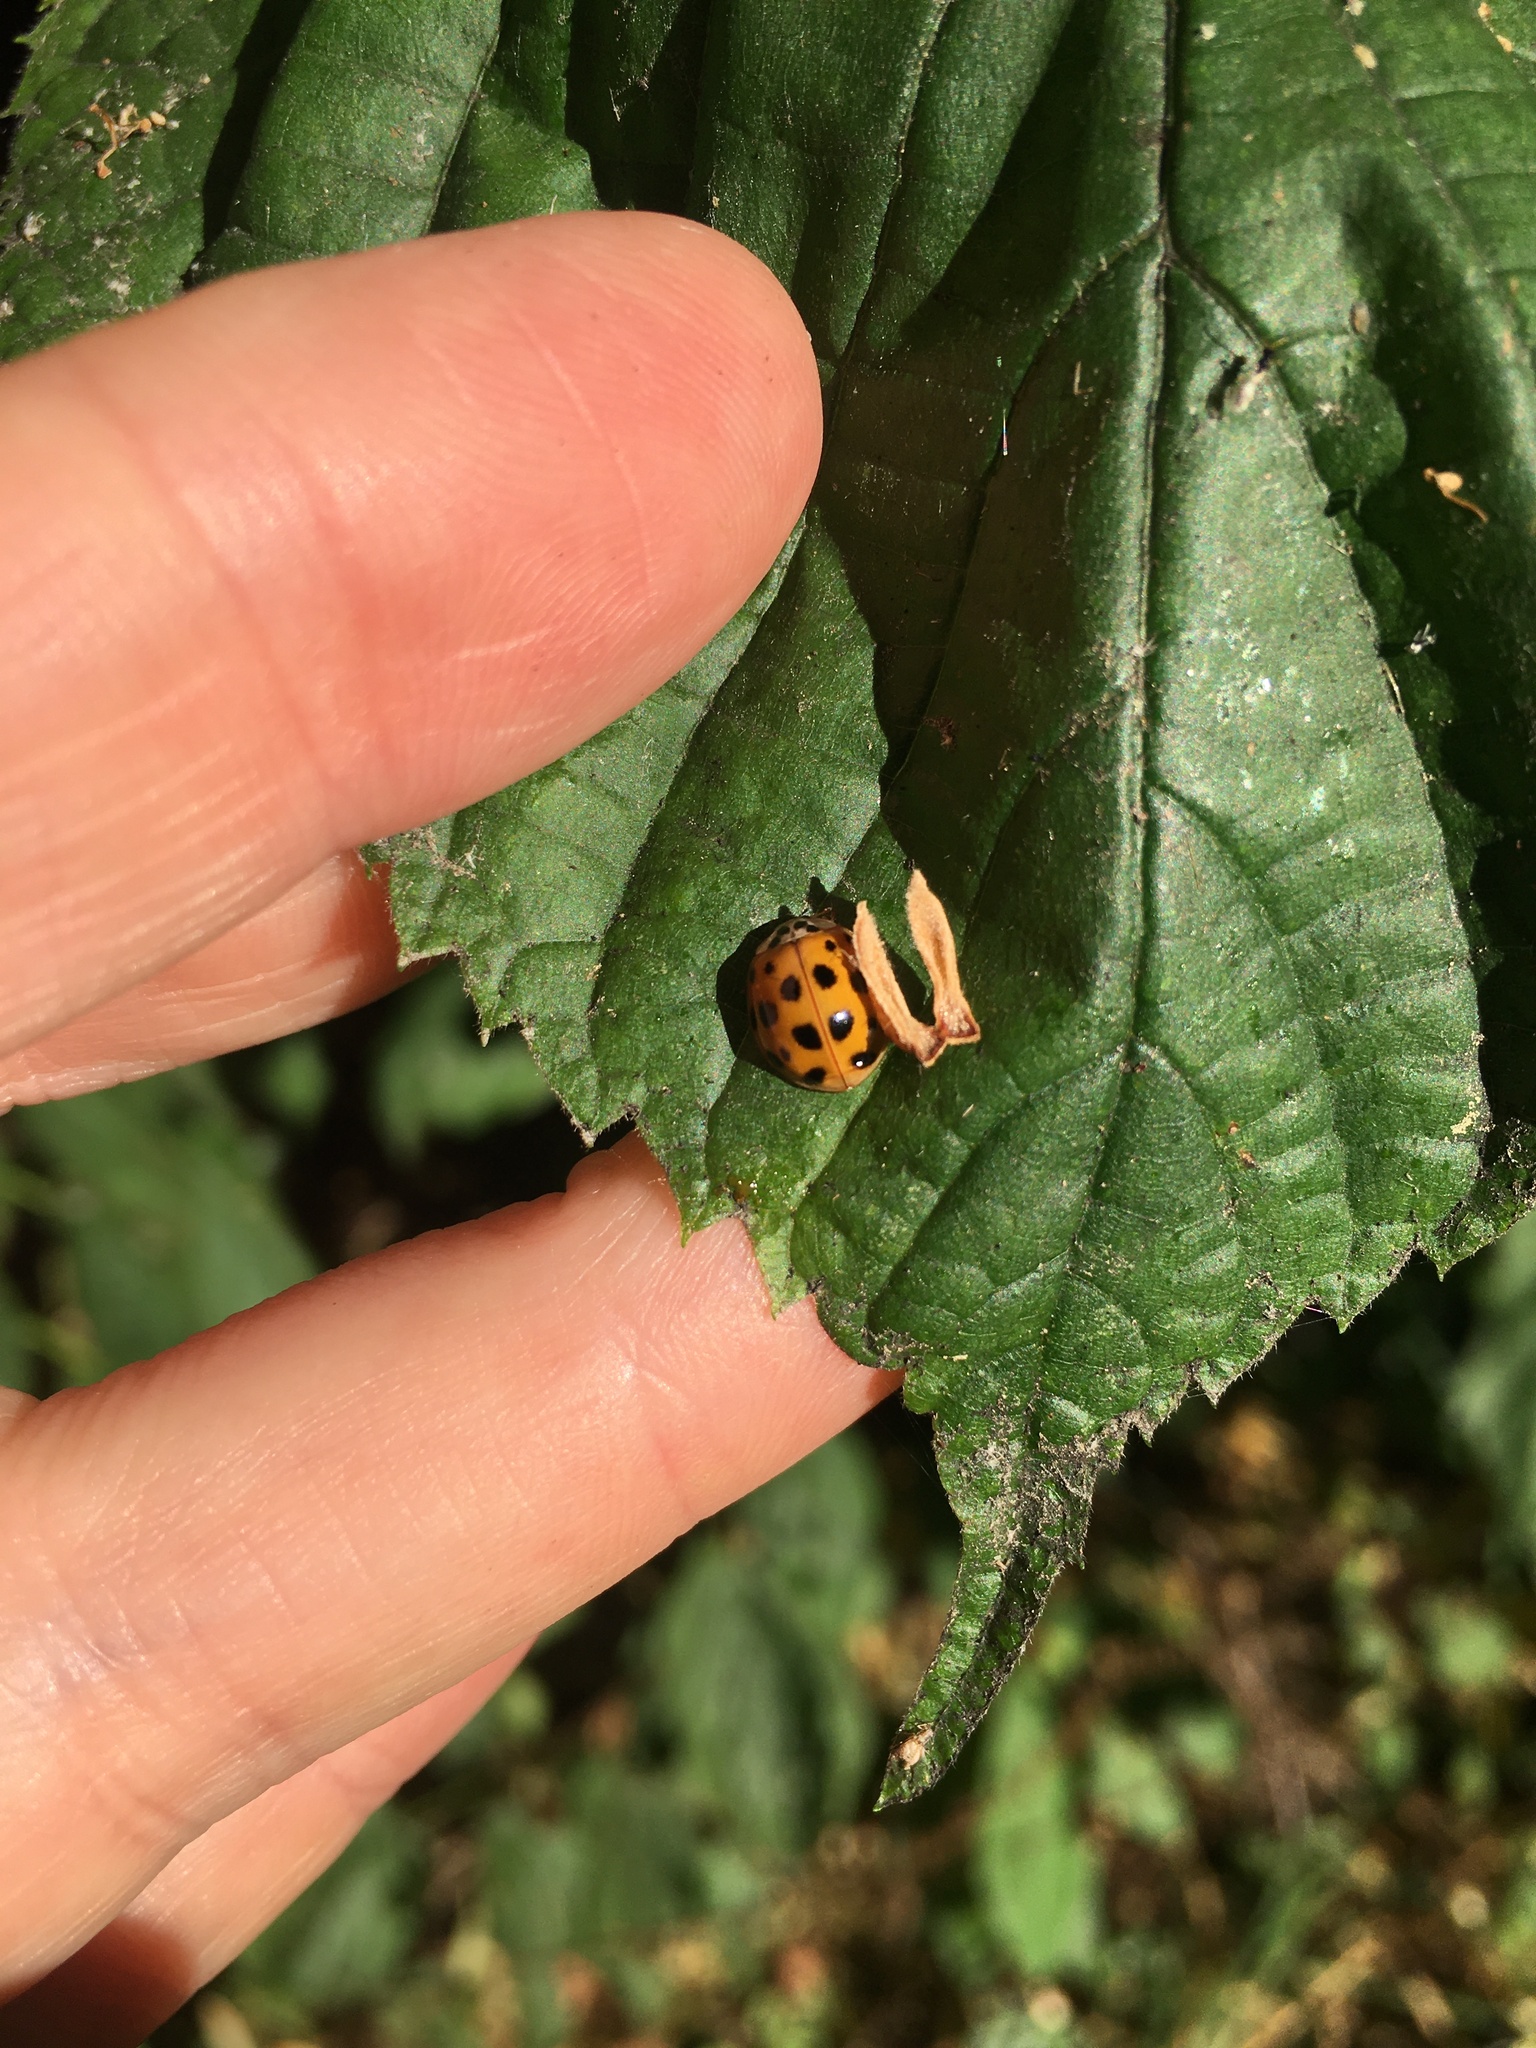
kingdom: Animalia
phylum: Arthropoda
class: Insecta
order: Coleoptera
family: Coccinellidae
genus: Harmonia
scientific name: Harmonia axyridis
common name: Harlequin ladybird
